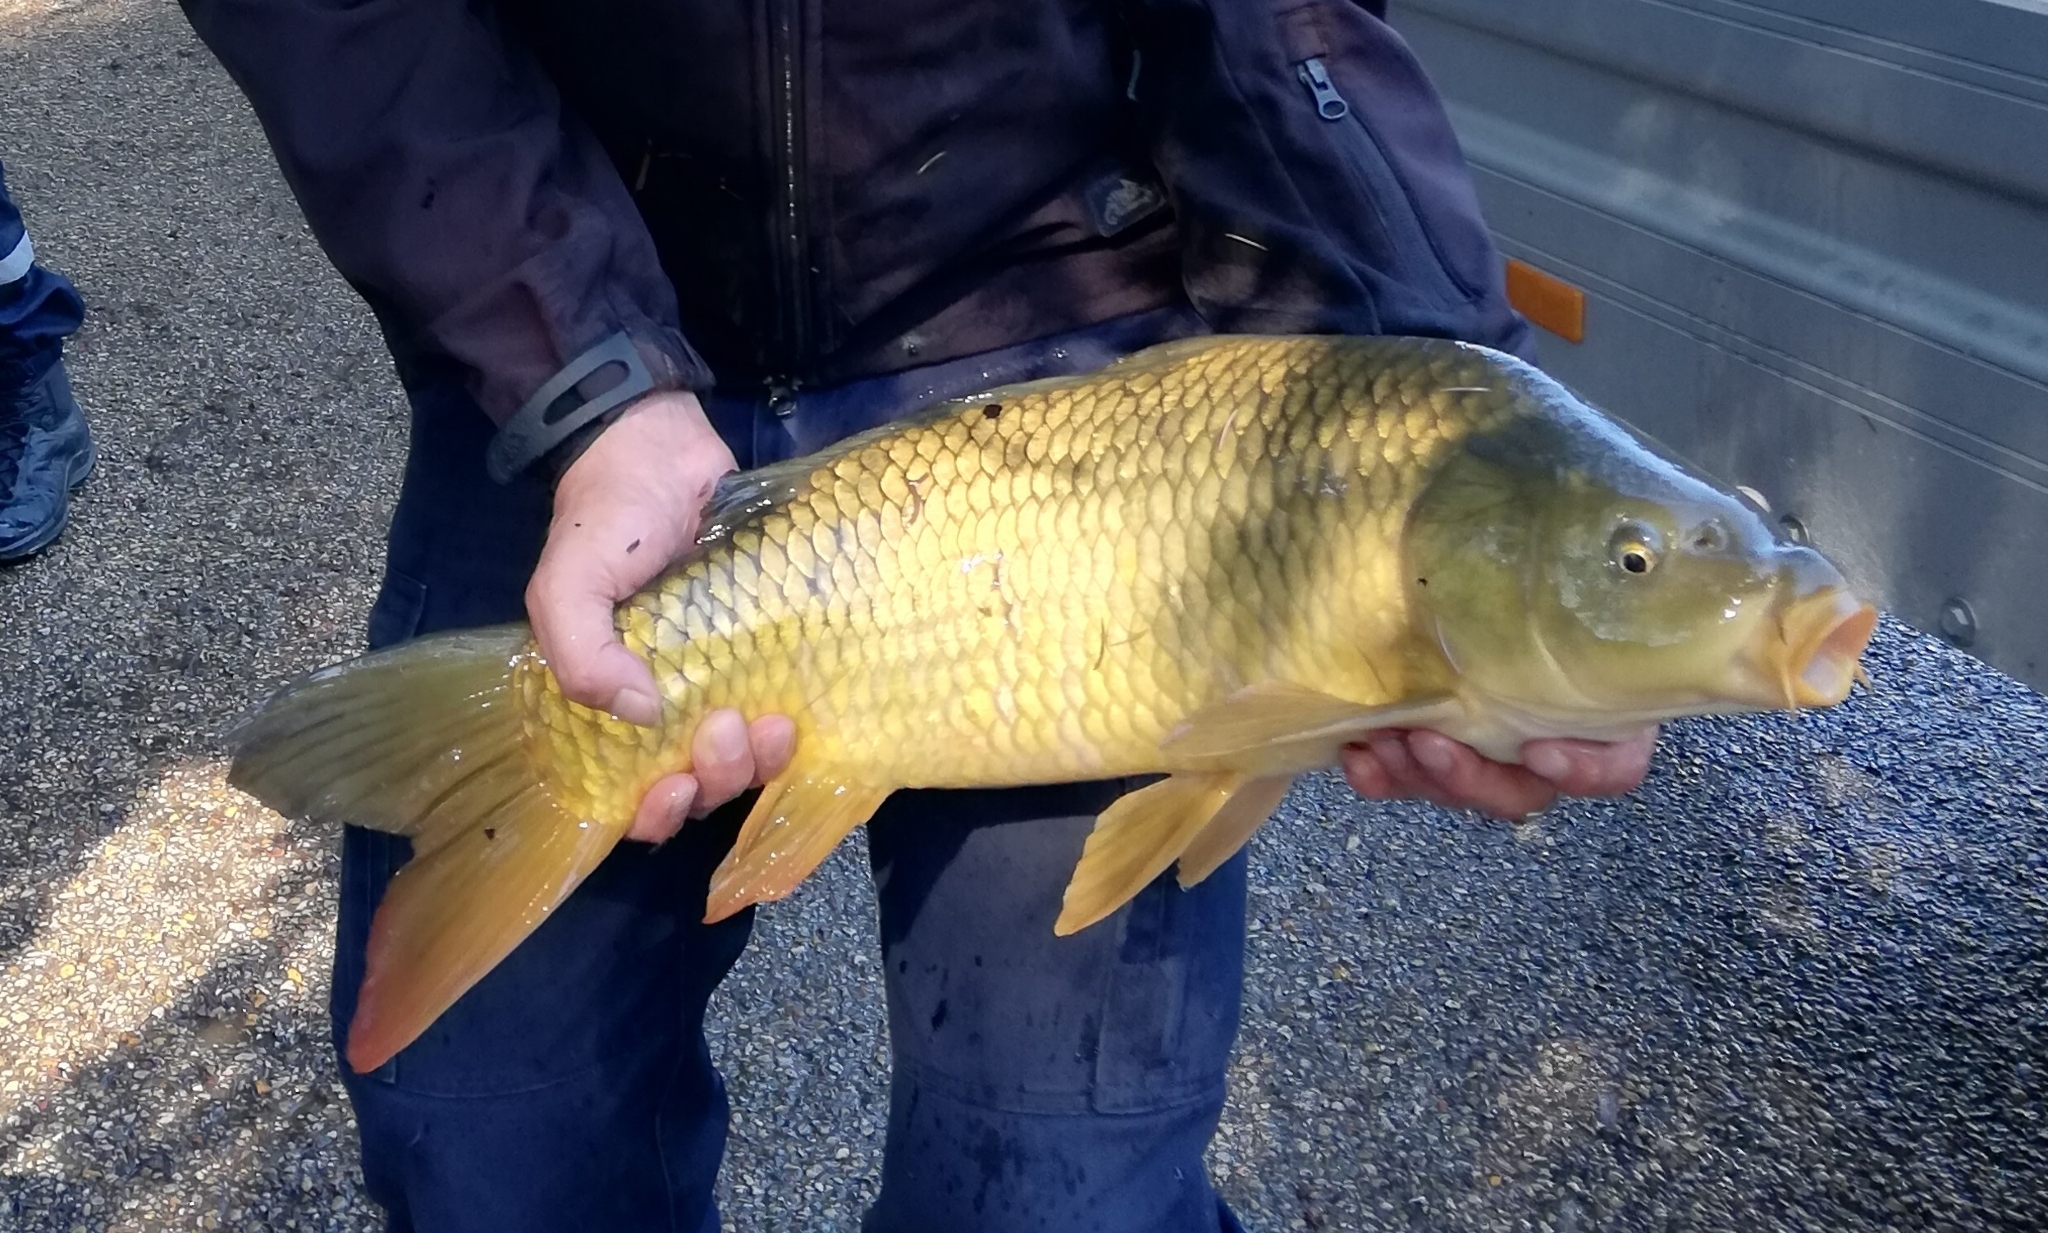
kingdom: Animalia
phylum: Chordata
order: Cypriniformes
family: Cyprinidae
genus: Cyprinus
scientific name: Cyprinus carpio
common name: Common carp
